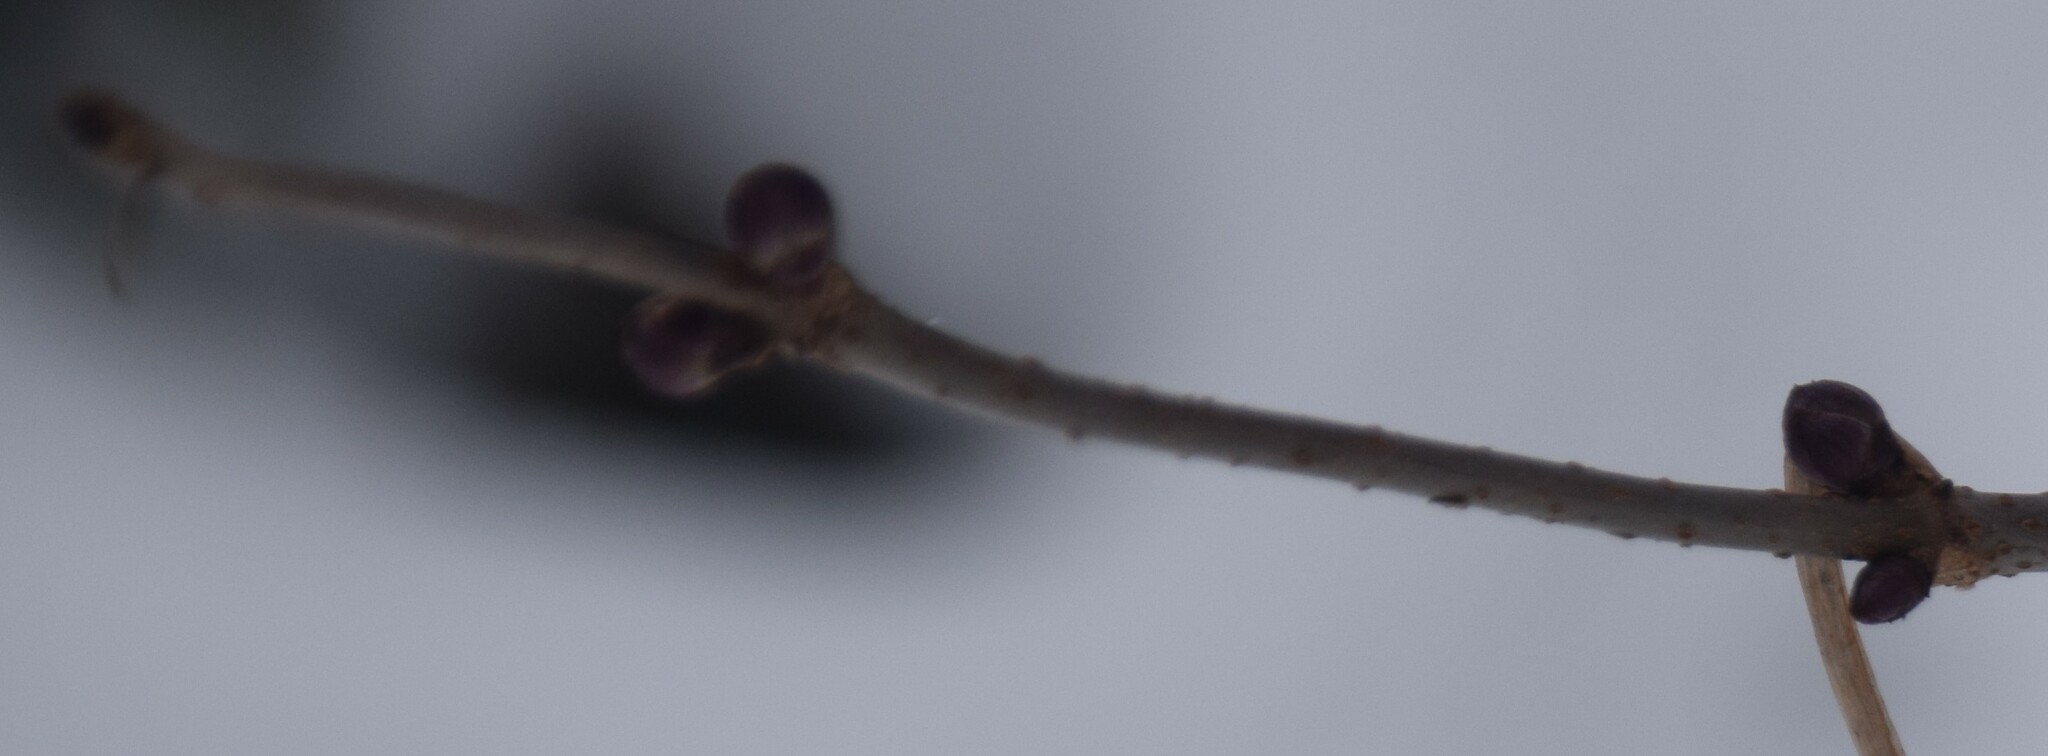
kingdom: Plantae
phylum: Tracheophyta
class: Magnoliopsida
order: Dipsacales
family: Viburnaceae
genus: Sambucus
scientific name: Sambucus racemosa
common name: Red-berried elder
